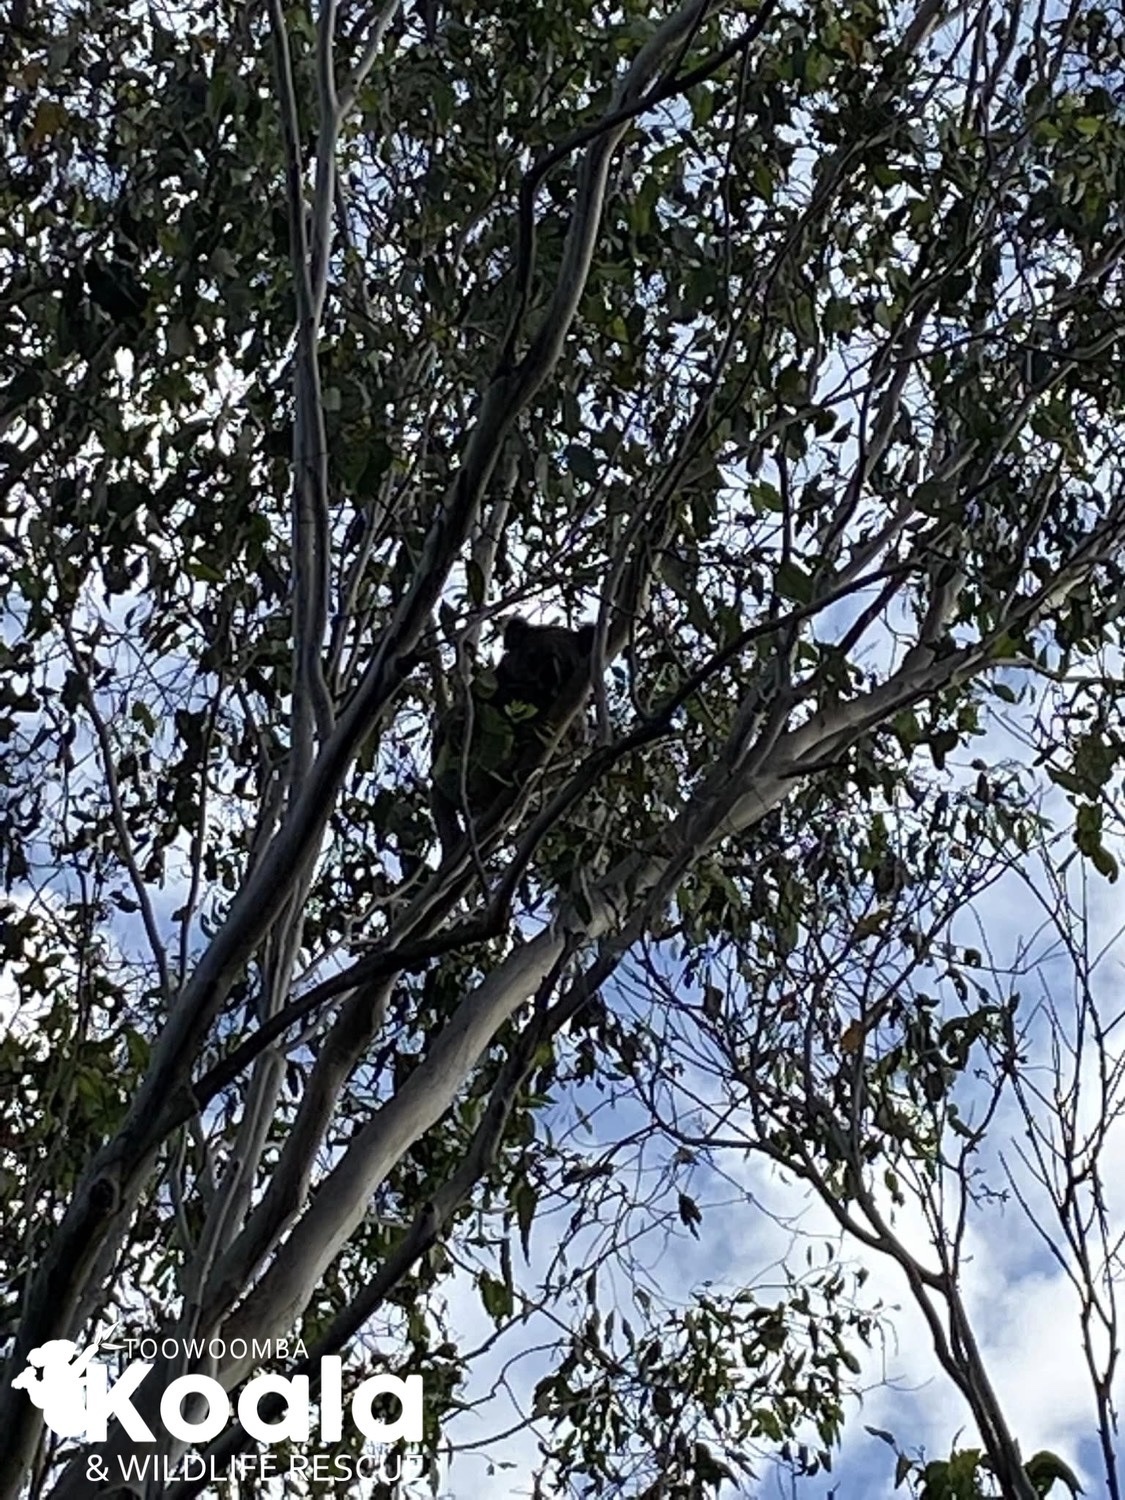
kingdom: Animalia
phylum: Chordata
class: Mammalia
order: Diprotodontia
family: Phascolarctidae
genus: Phascolarctos
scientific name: Phascolarctos cinereus
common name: Koala
